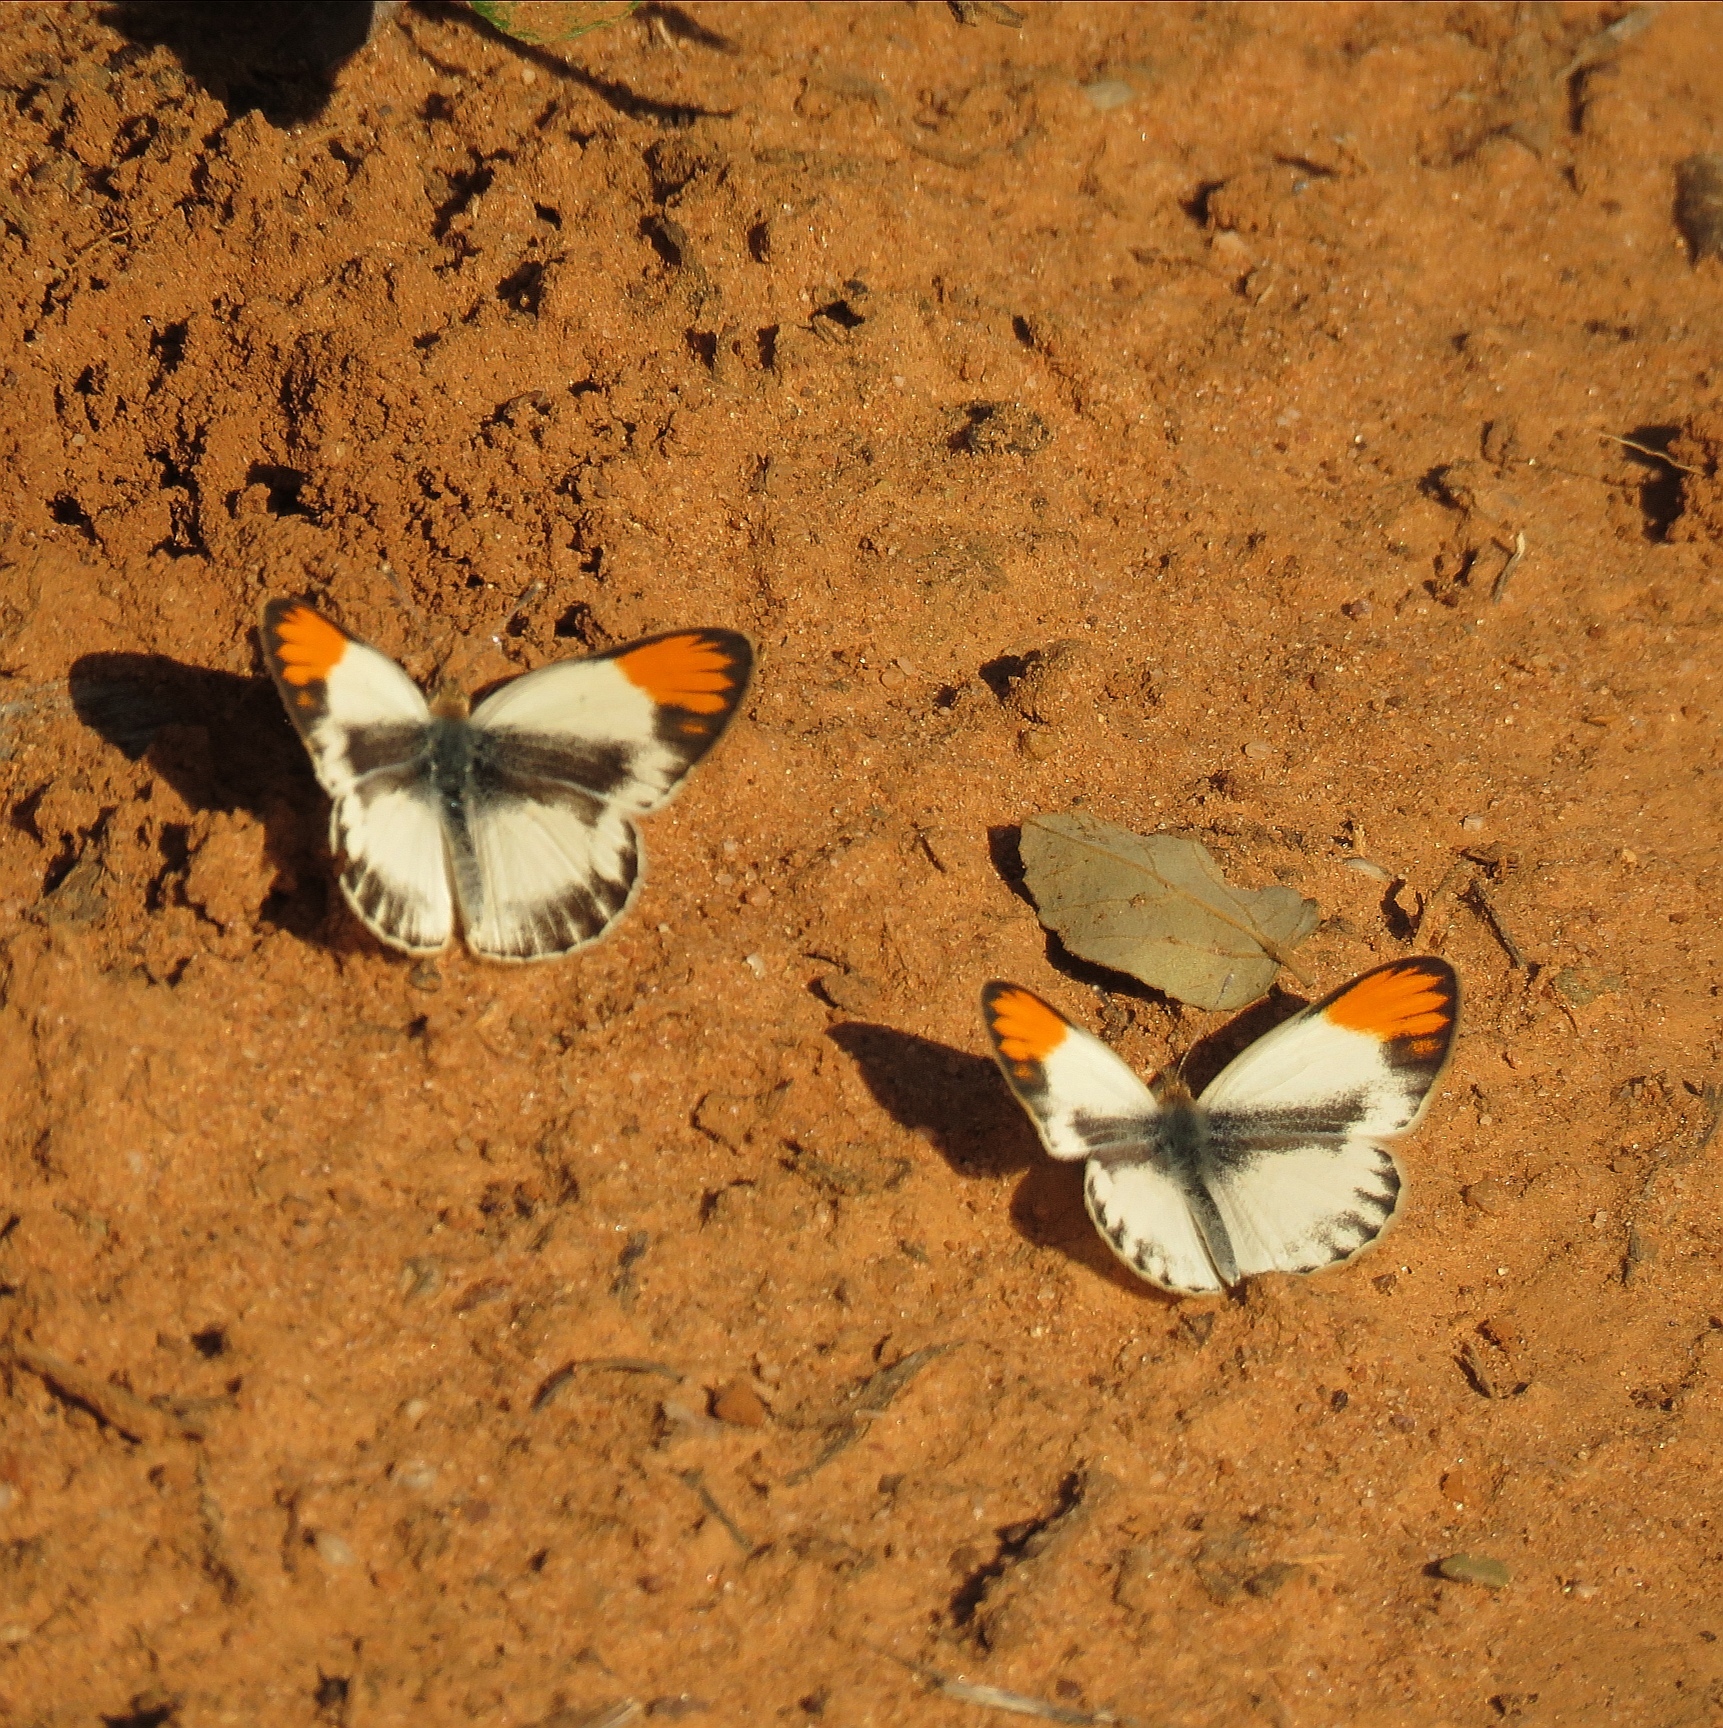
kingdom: Animalia
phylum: Arthropoda
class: Insecta
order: Lepidoptera
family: Pieridae
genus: Colotis
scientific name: Colotis evagore
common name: Desert orange-tip
